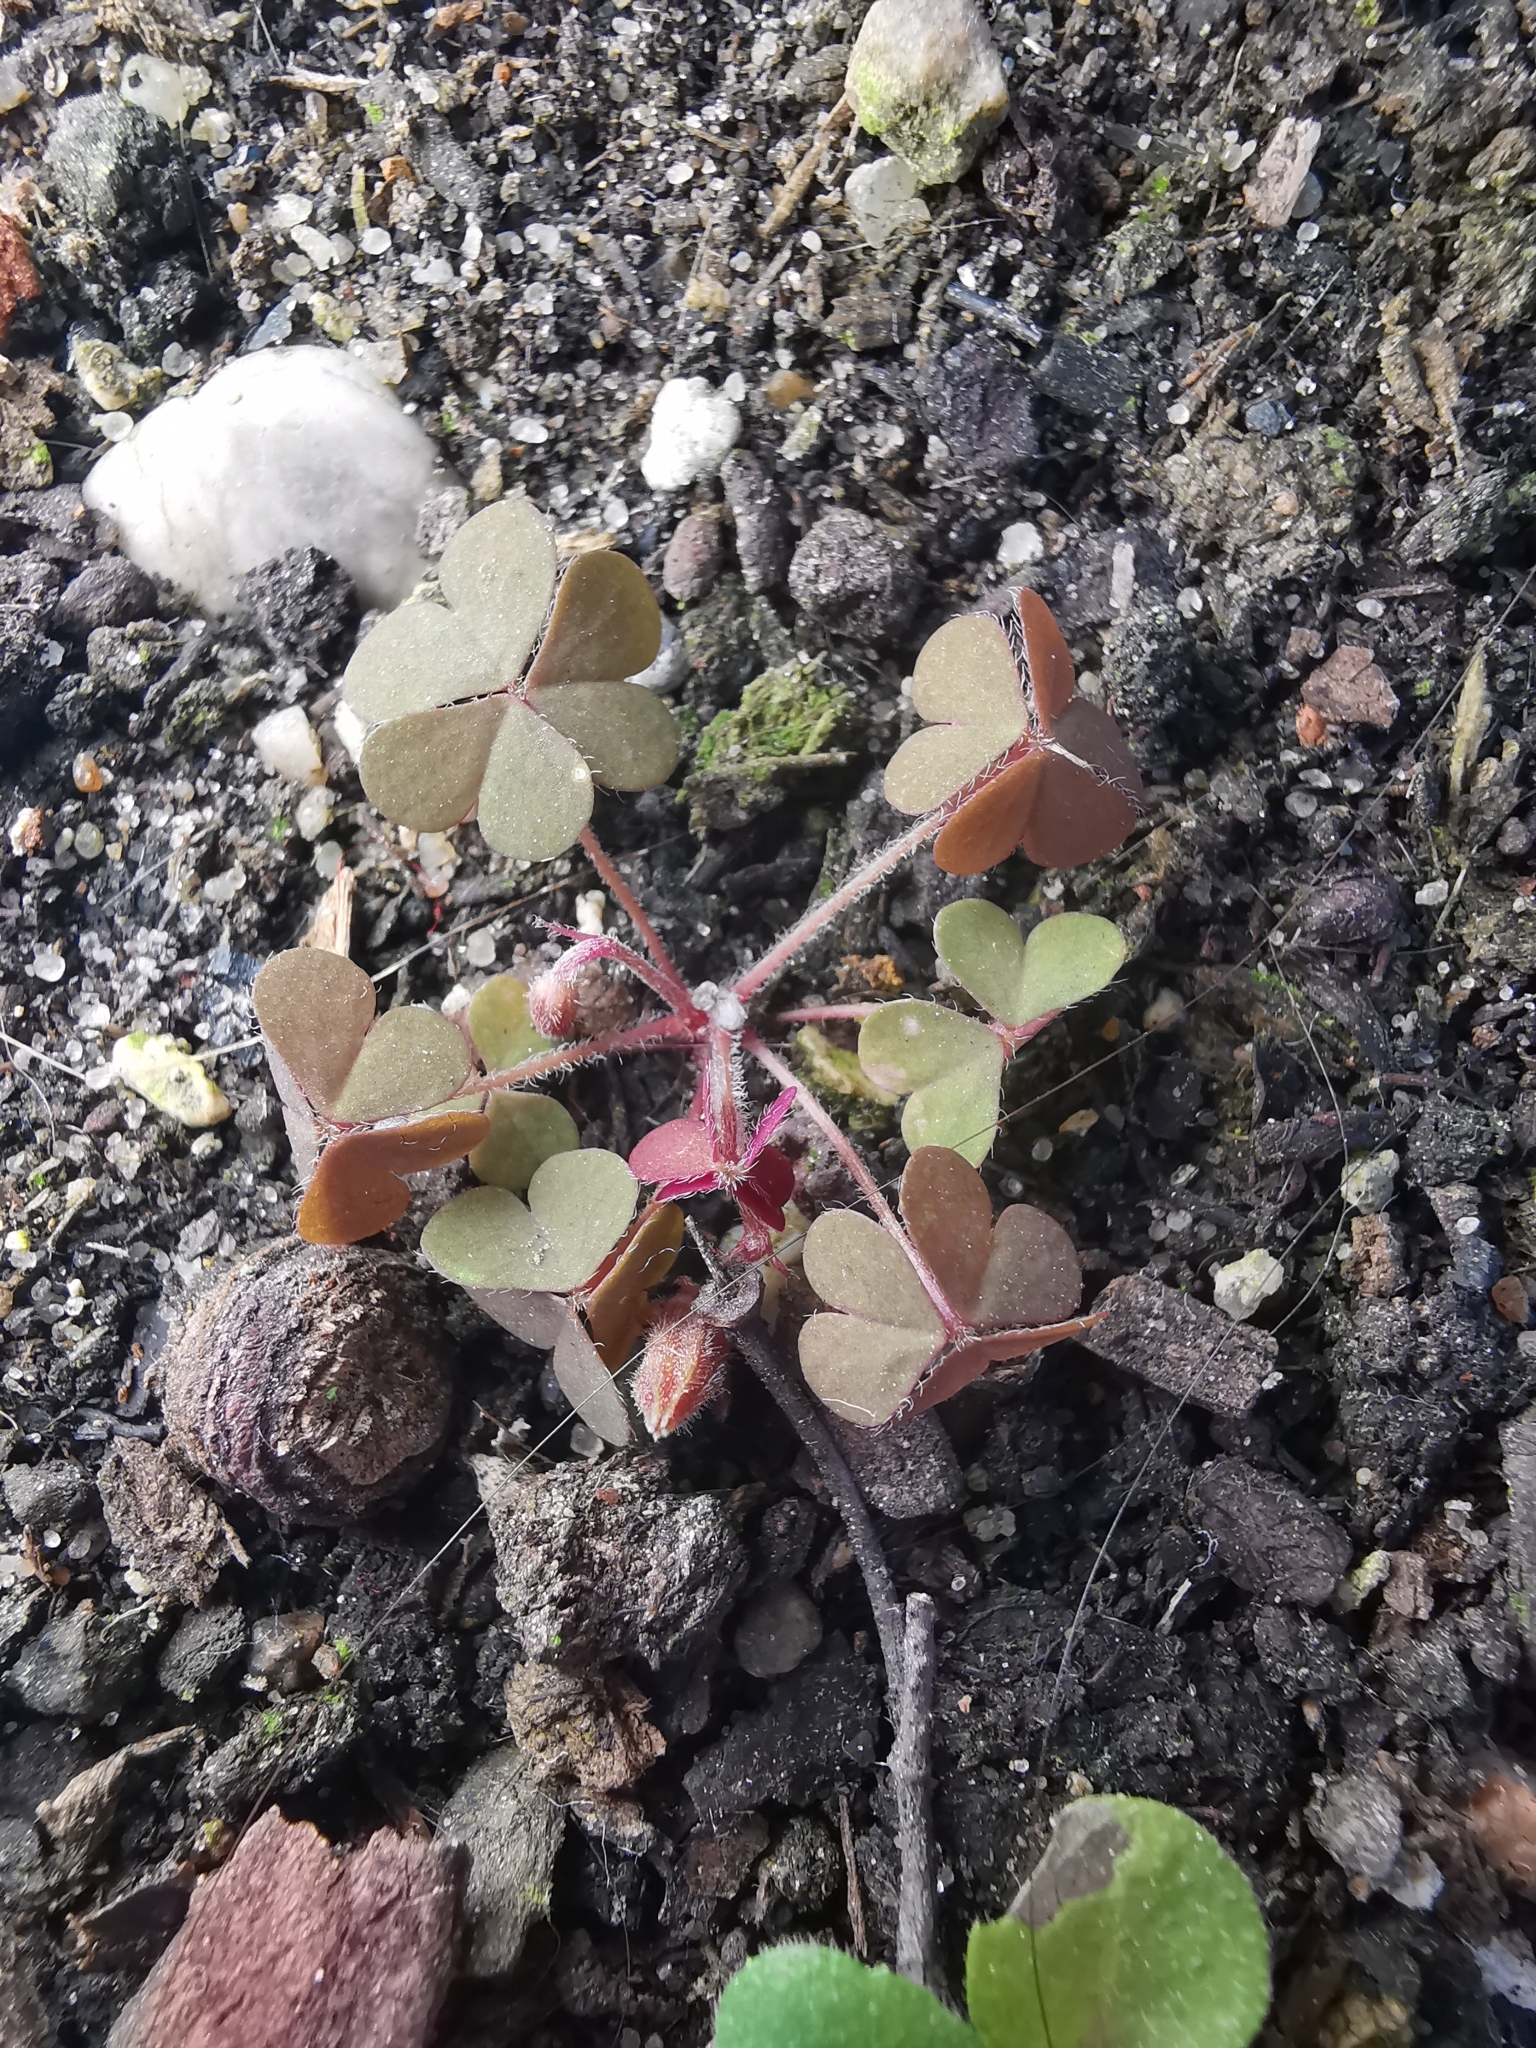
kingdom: Plantae
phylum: Tracheophyta
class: Magnoliopsida
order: Oxalidales
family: Oxalidaceae
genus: Oxalis
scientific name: Oxalis corniculata
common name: Procumbent yellow-sorrel
